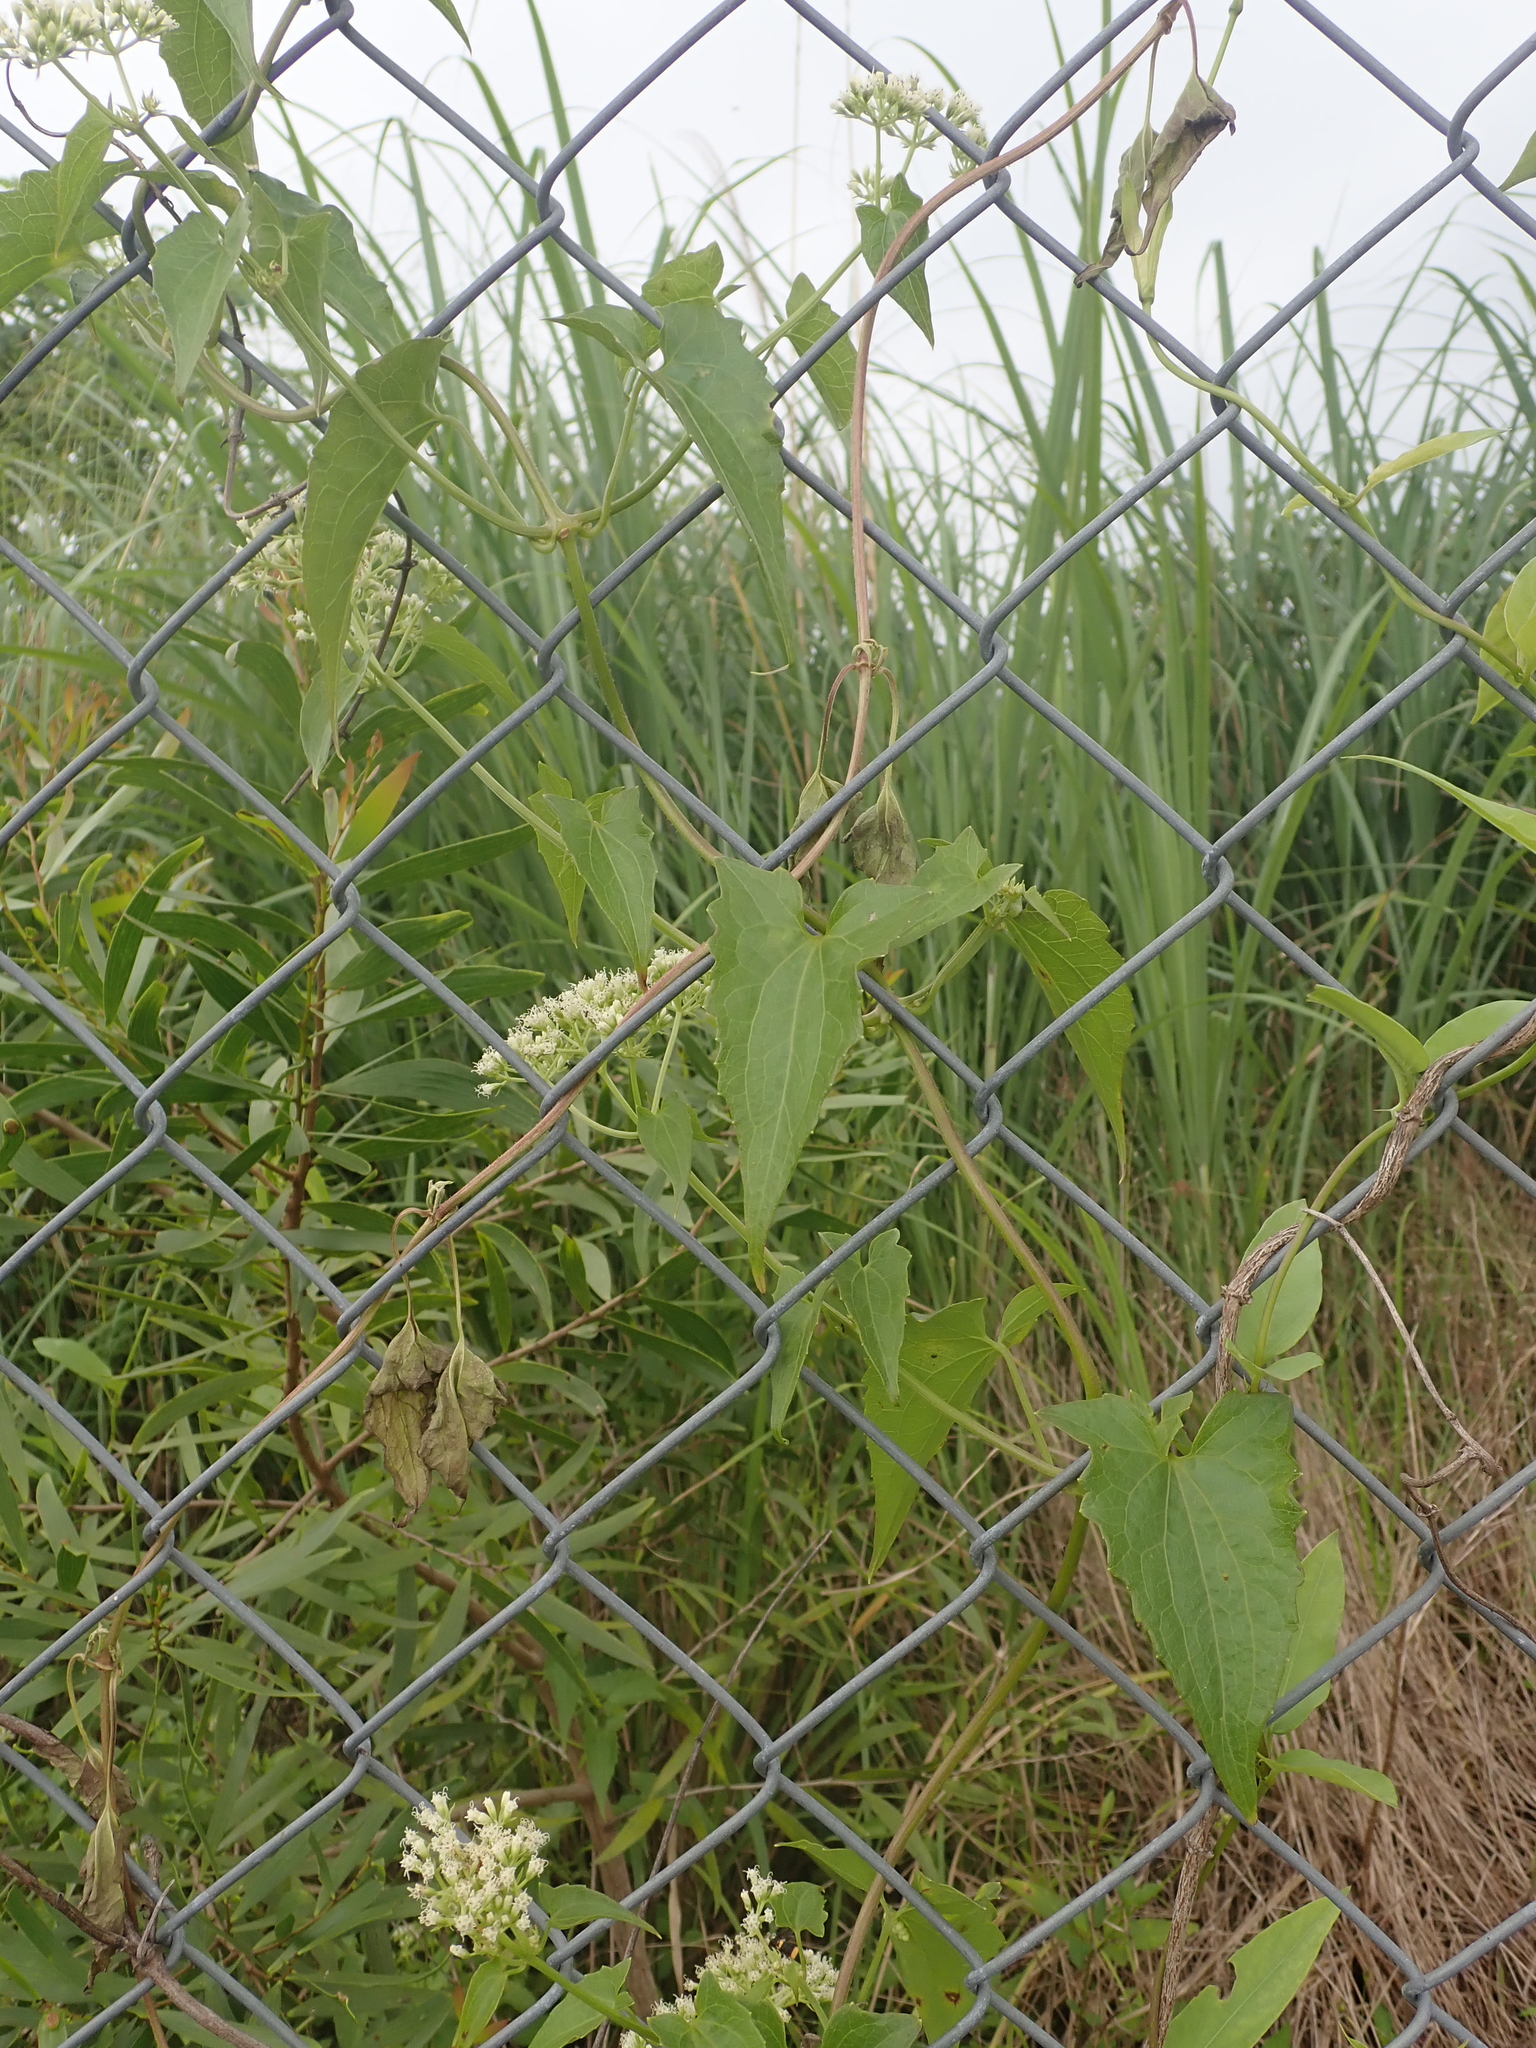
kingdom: Plantae
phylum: Tracheophyta
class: Magnoliopsida
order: Asterales
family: Asteraceae
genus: Mikania
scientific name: Mikania micrantha
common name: Mile-a-minute
